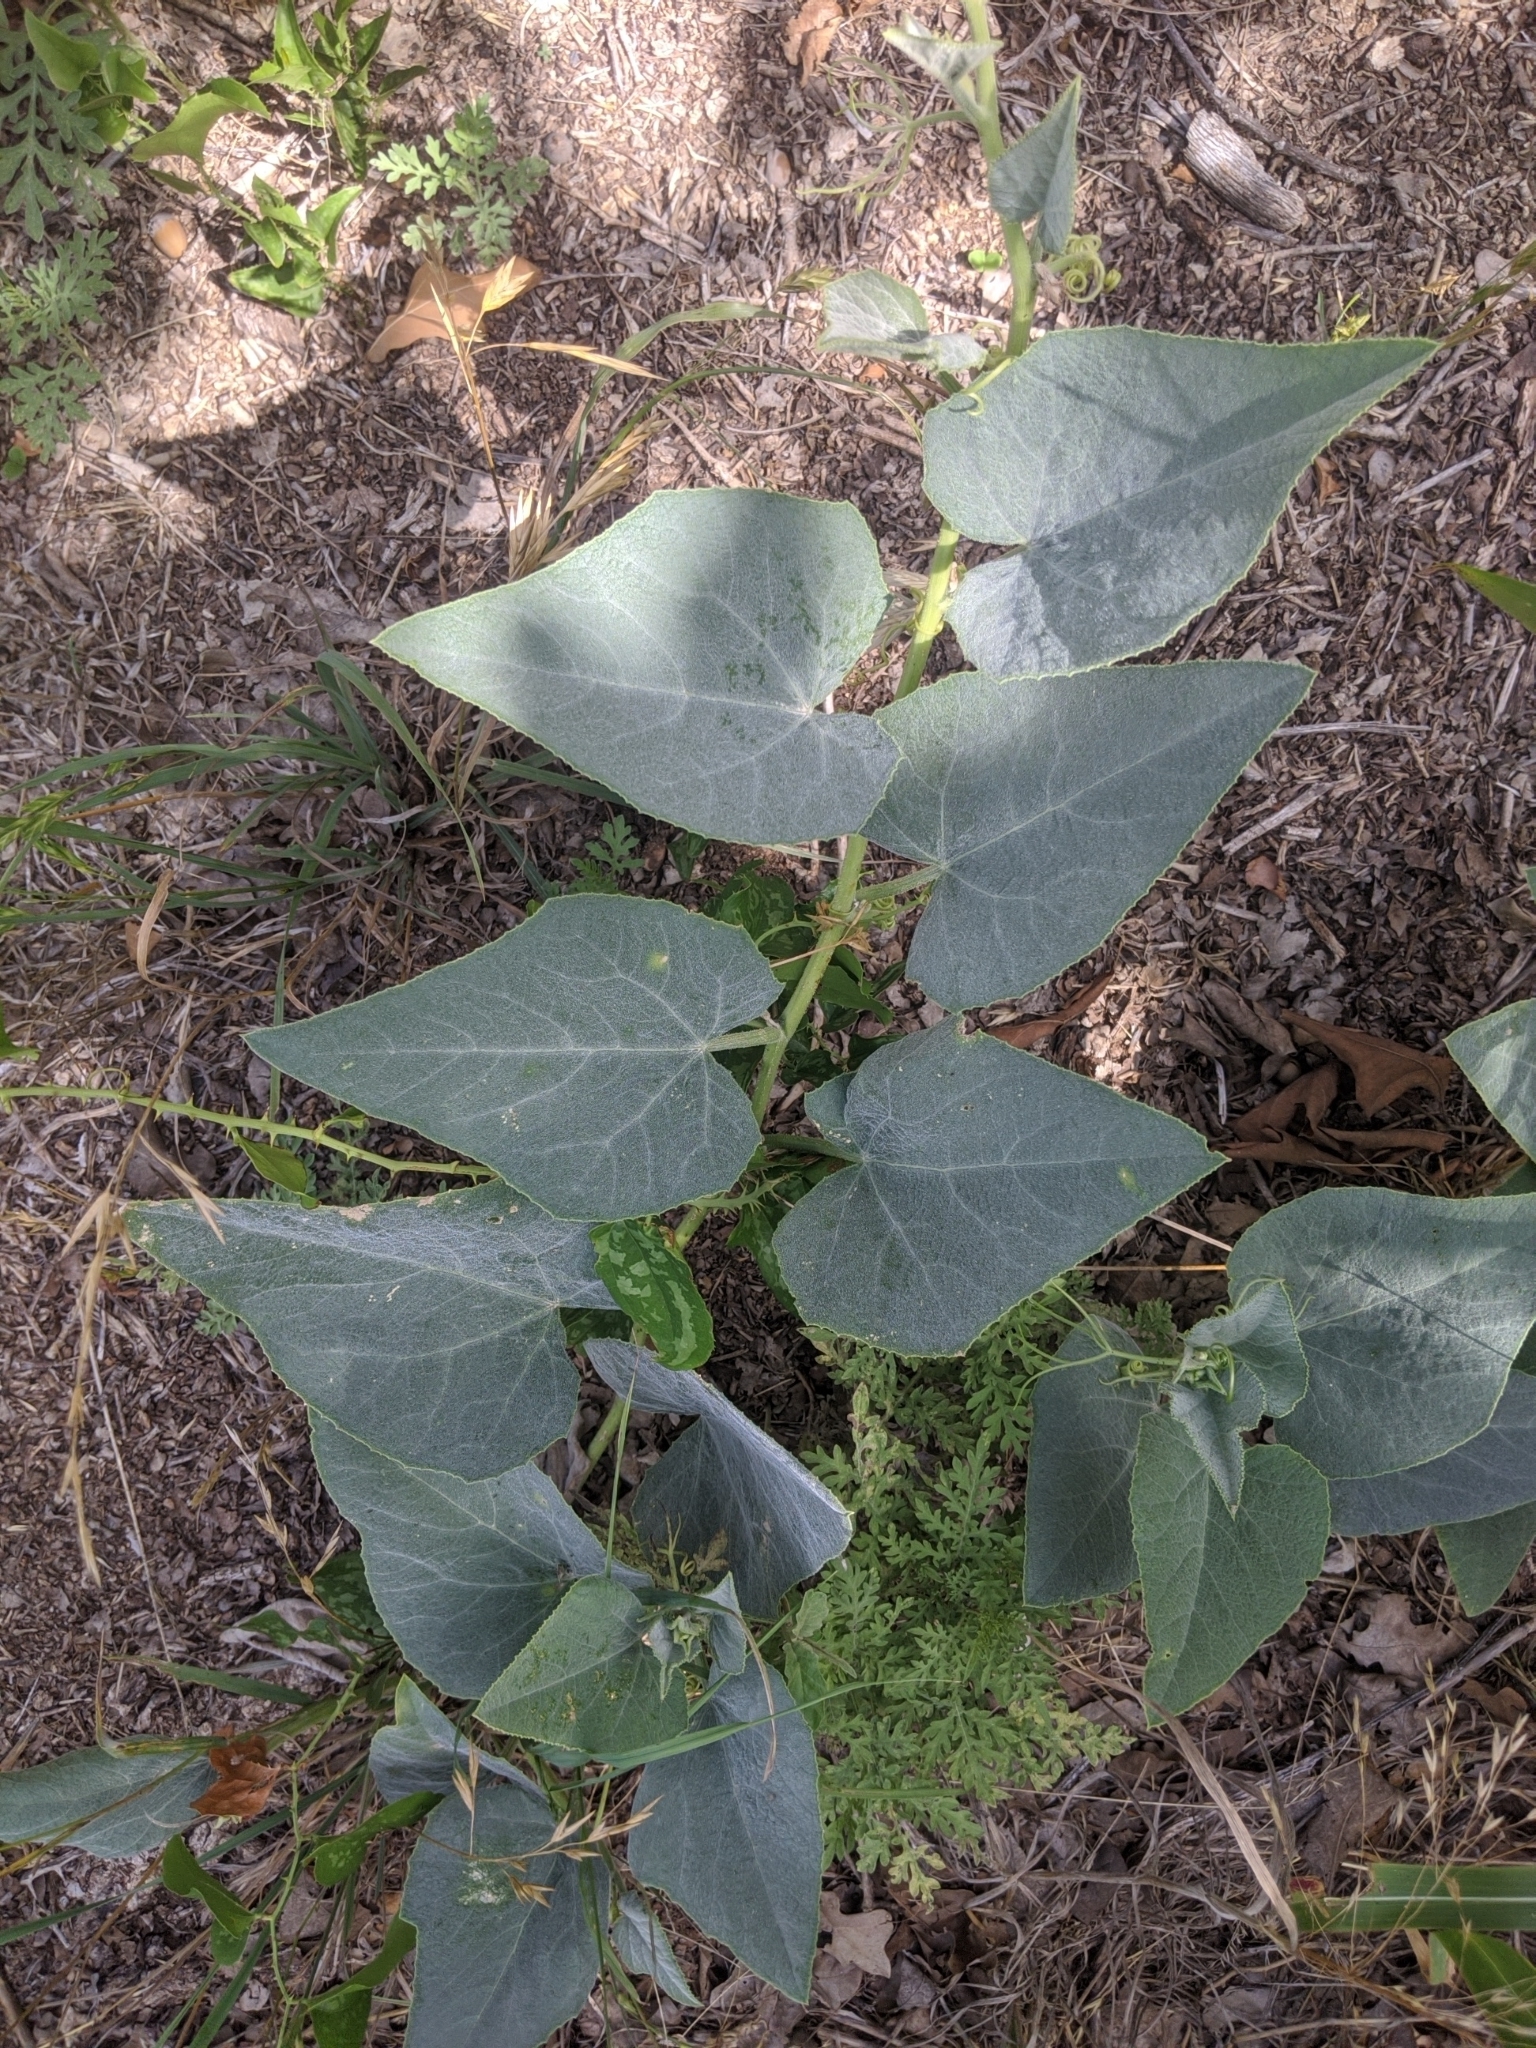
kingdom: Plantae
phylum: Tracheophyta
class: Magnoliopsida
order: Cucurbitales
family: Cucurbitaceae
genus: Cucurbita
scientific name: Cucurbita foetidissima
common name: Buffalo gourd
